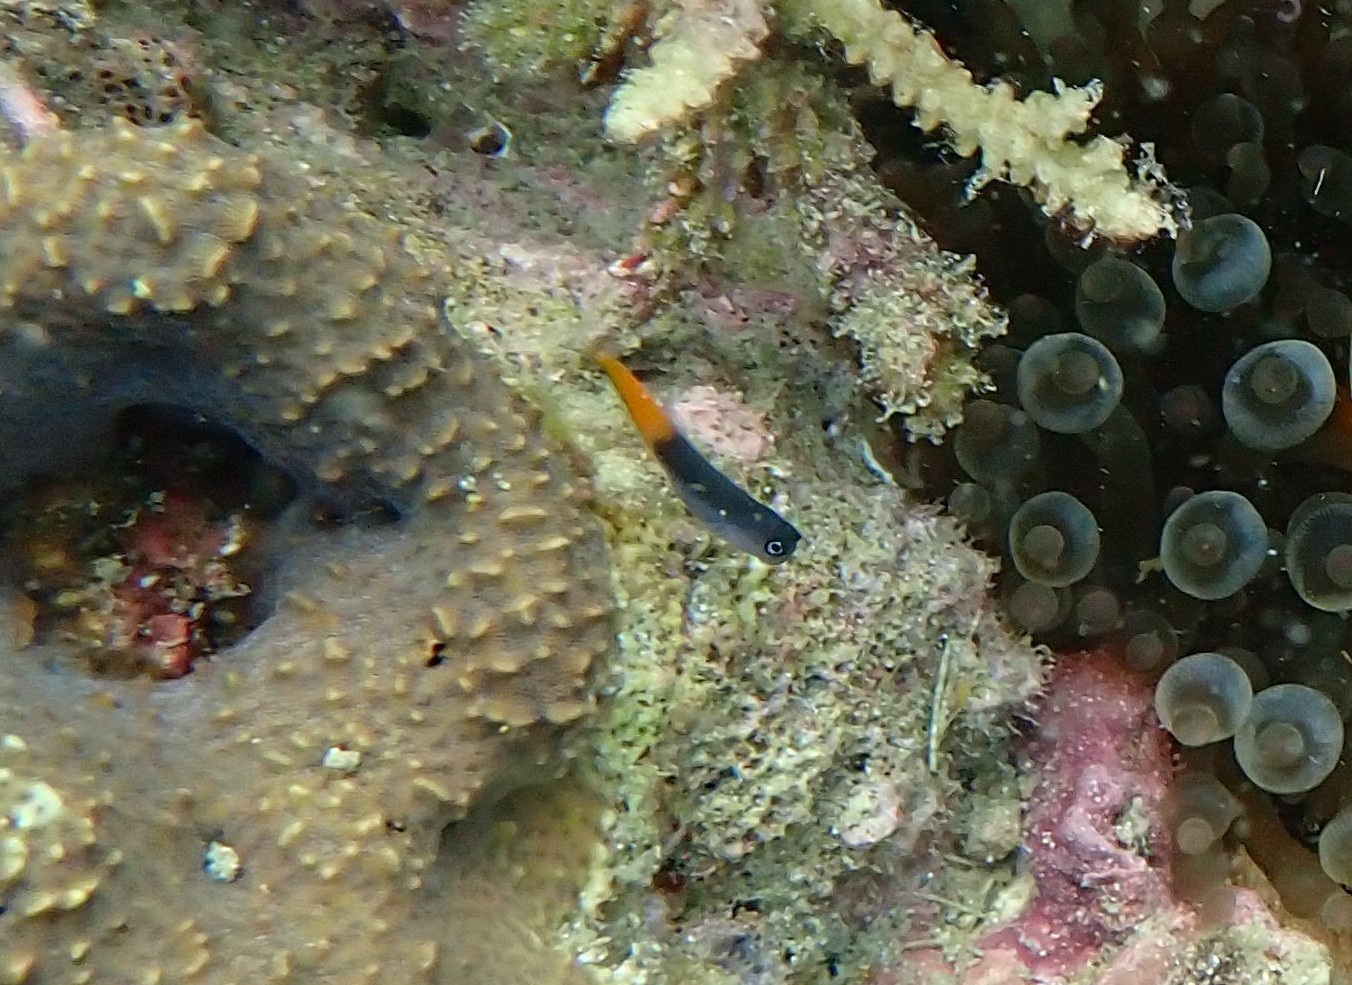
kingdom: Animalia
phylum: Chordata
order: Perciformes
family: Blenniidae
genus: Ecsenius
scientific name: Ecsenius bicolor
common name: Bicolor blenny
